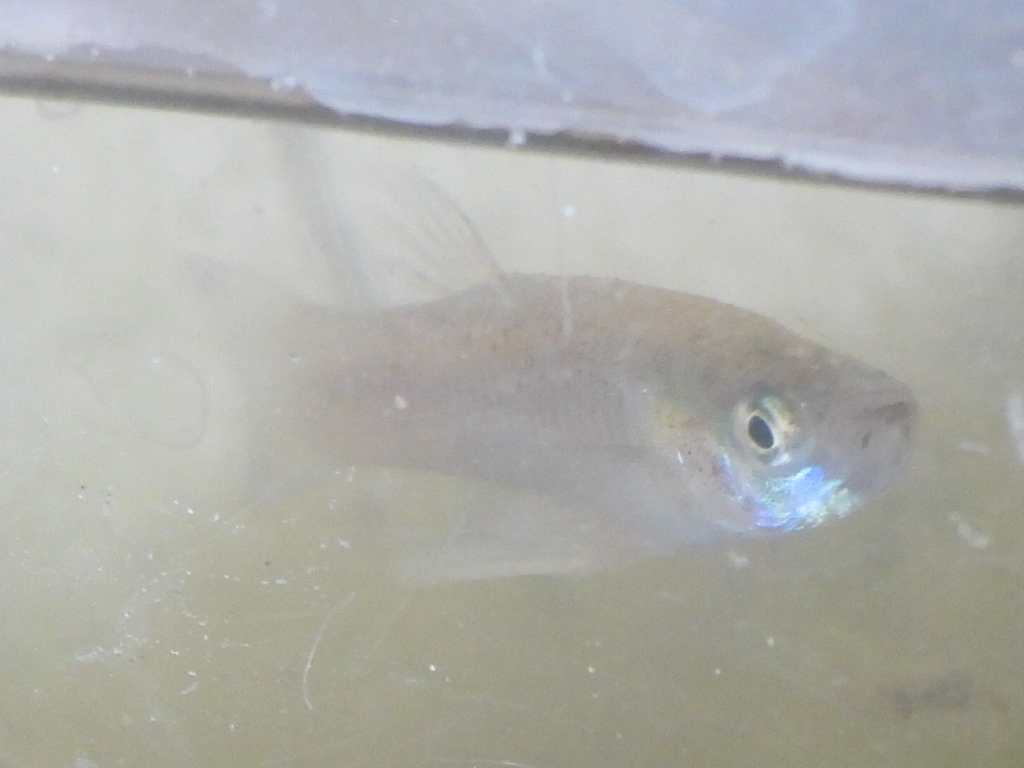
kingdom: Animalia
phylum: Chordata
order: Cyprinodontiformes
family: Poeciliidae
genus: Gambusia
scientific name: Gambusia affinis
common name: Mosquitofish
